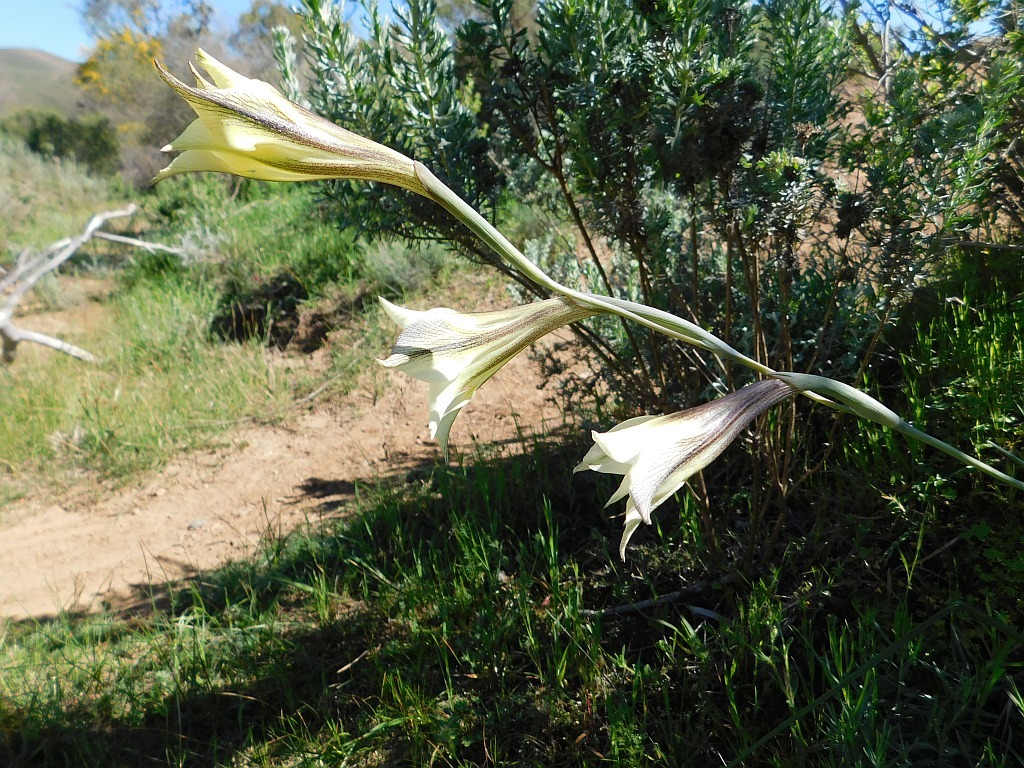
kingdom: Plantae
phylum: Tracheophyta
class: Liliopsida
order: Asparagales
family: Iridaceae
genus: Gladiolus
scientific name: Gladiolus tristis
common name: Ever-flowering gladiolus
